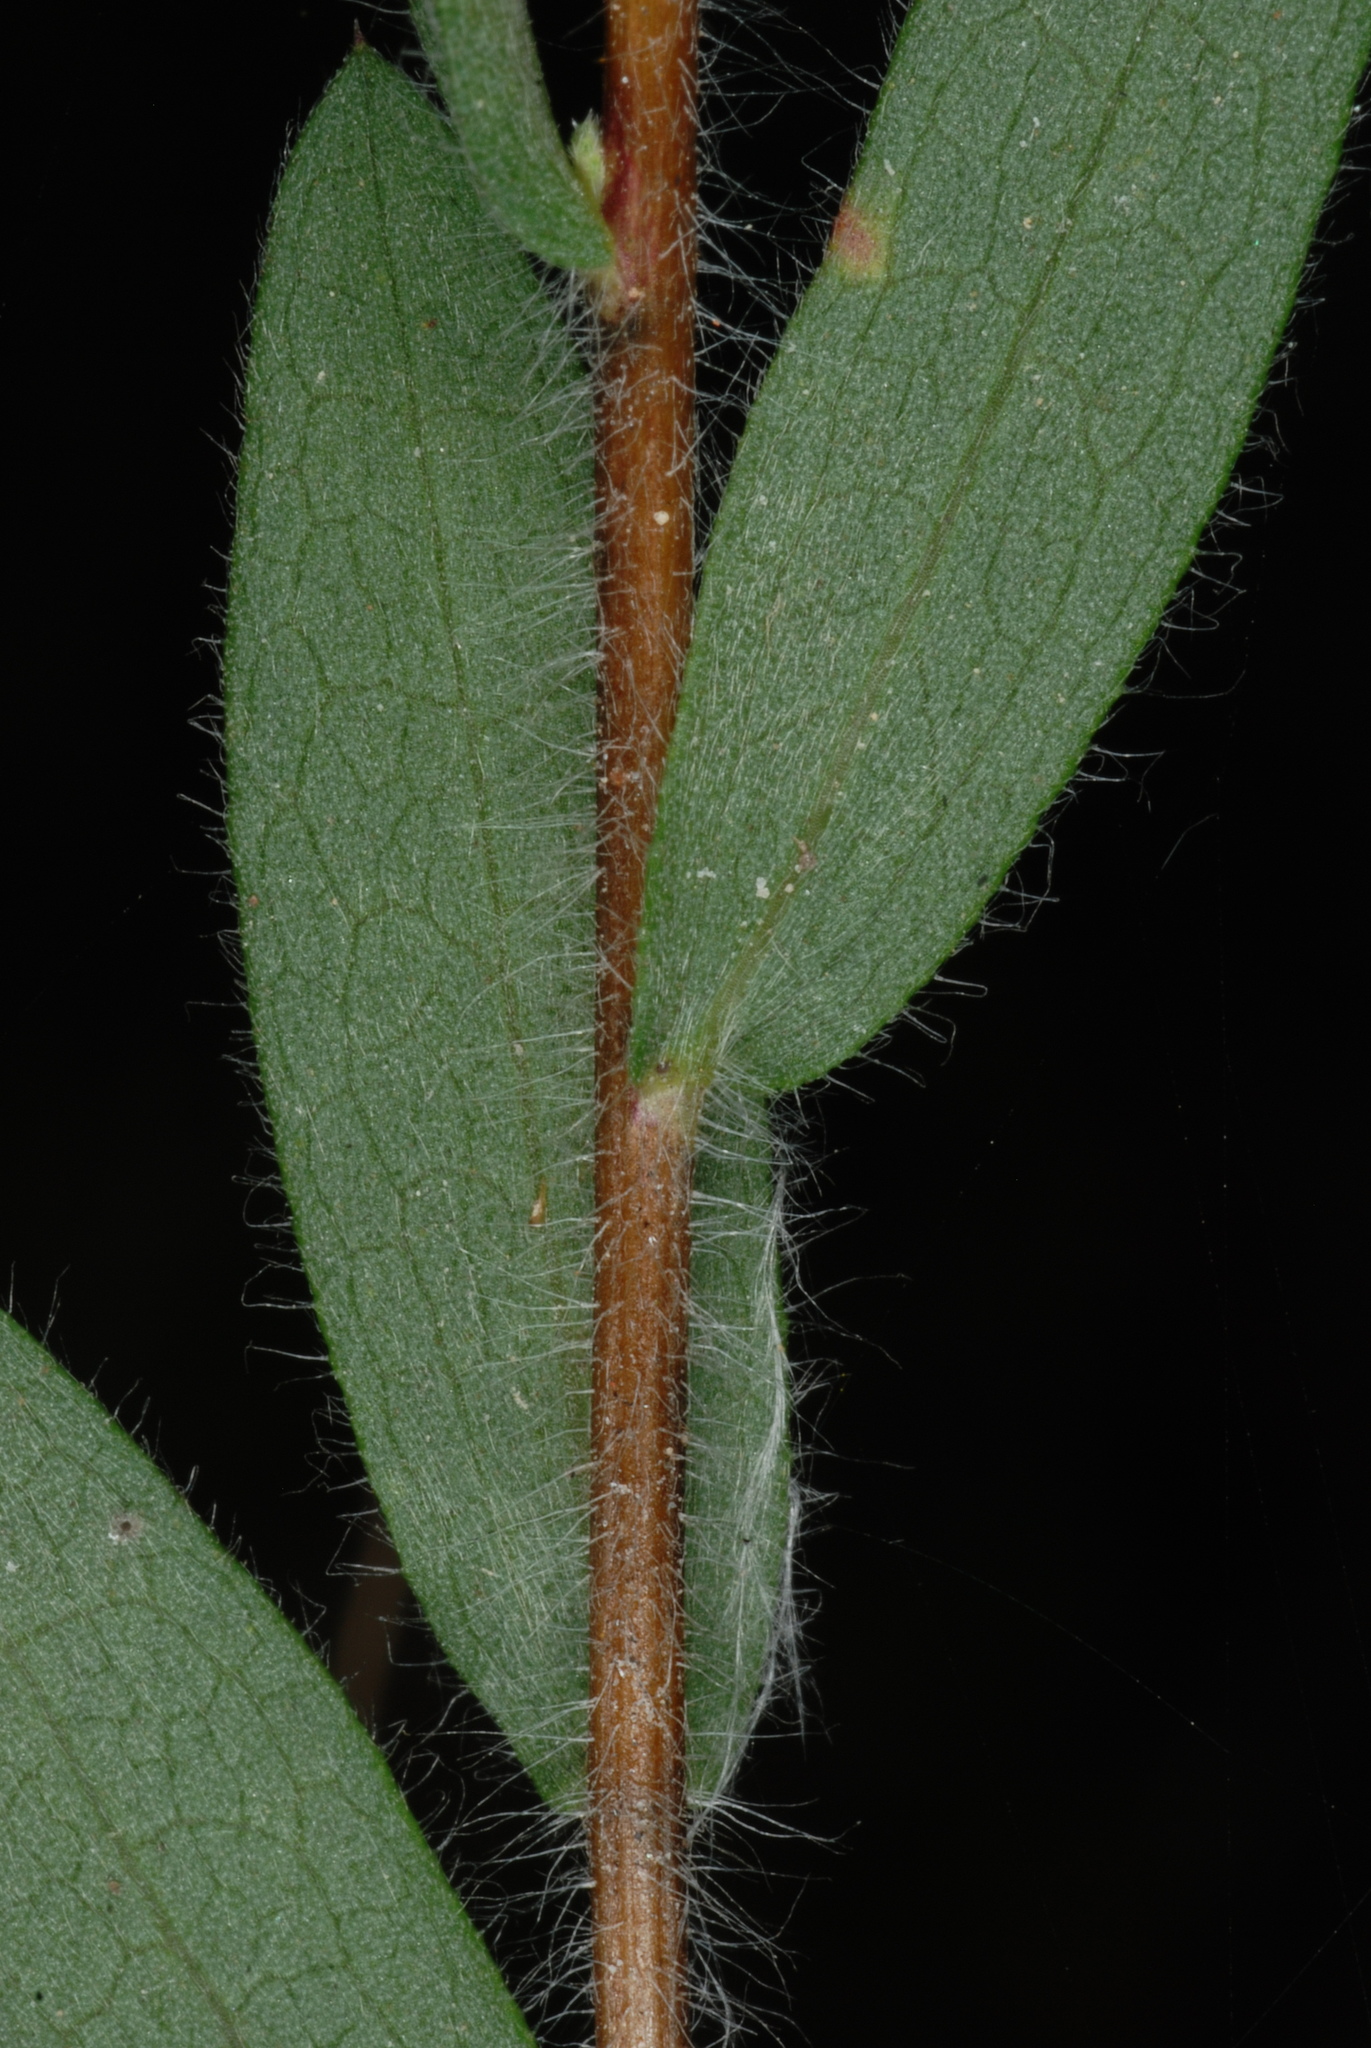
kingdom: Plantae
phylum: Tracheophyta
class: Magnoliopsida
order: Asterales
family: Asteraceae
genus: Symphyotrichum
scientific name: Symphyotrichum concolor
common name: Eastern silver aster
